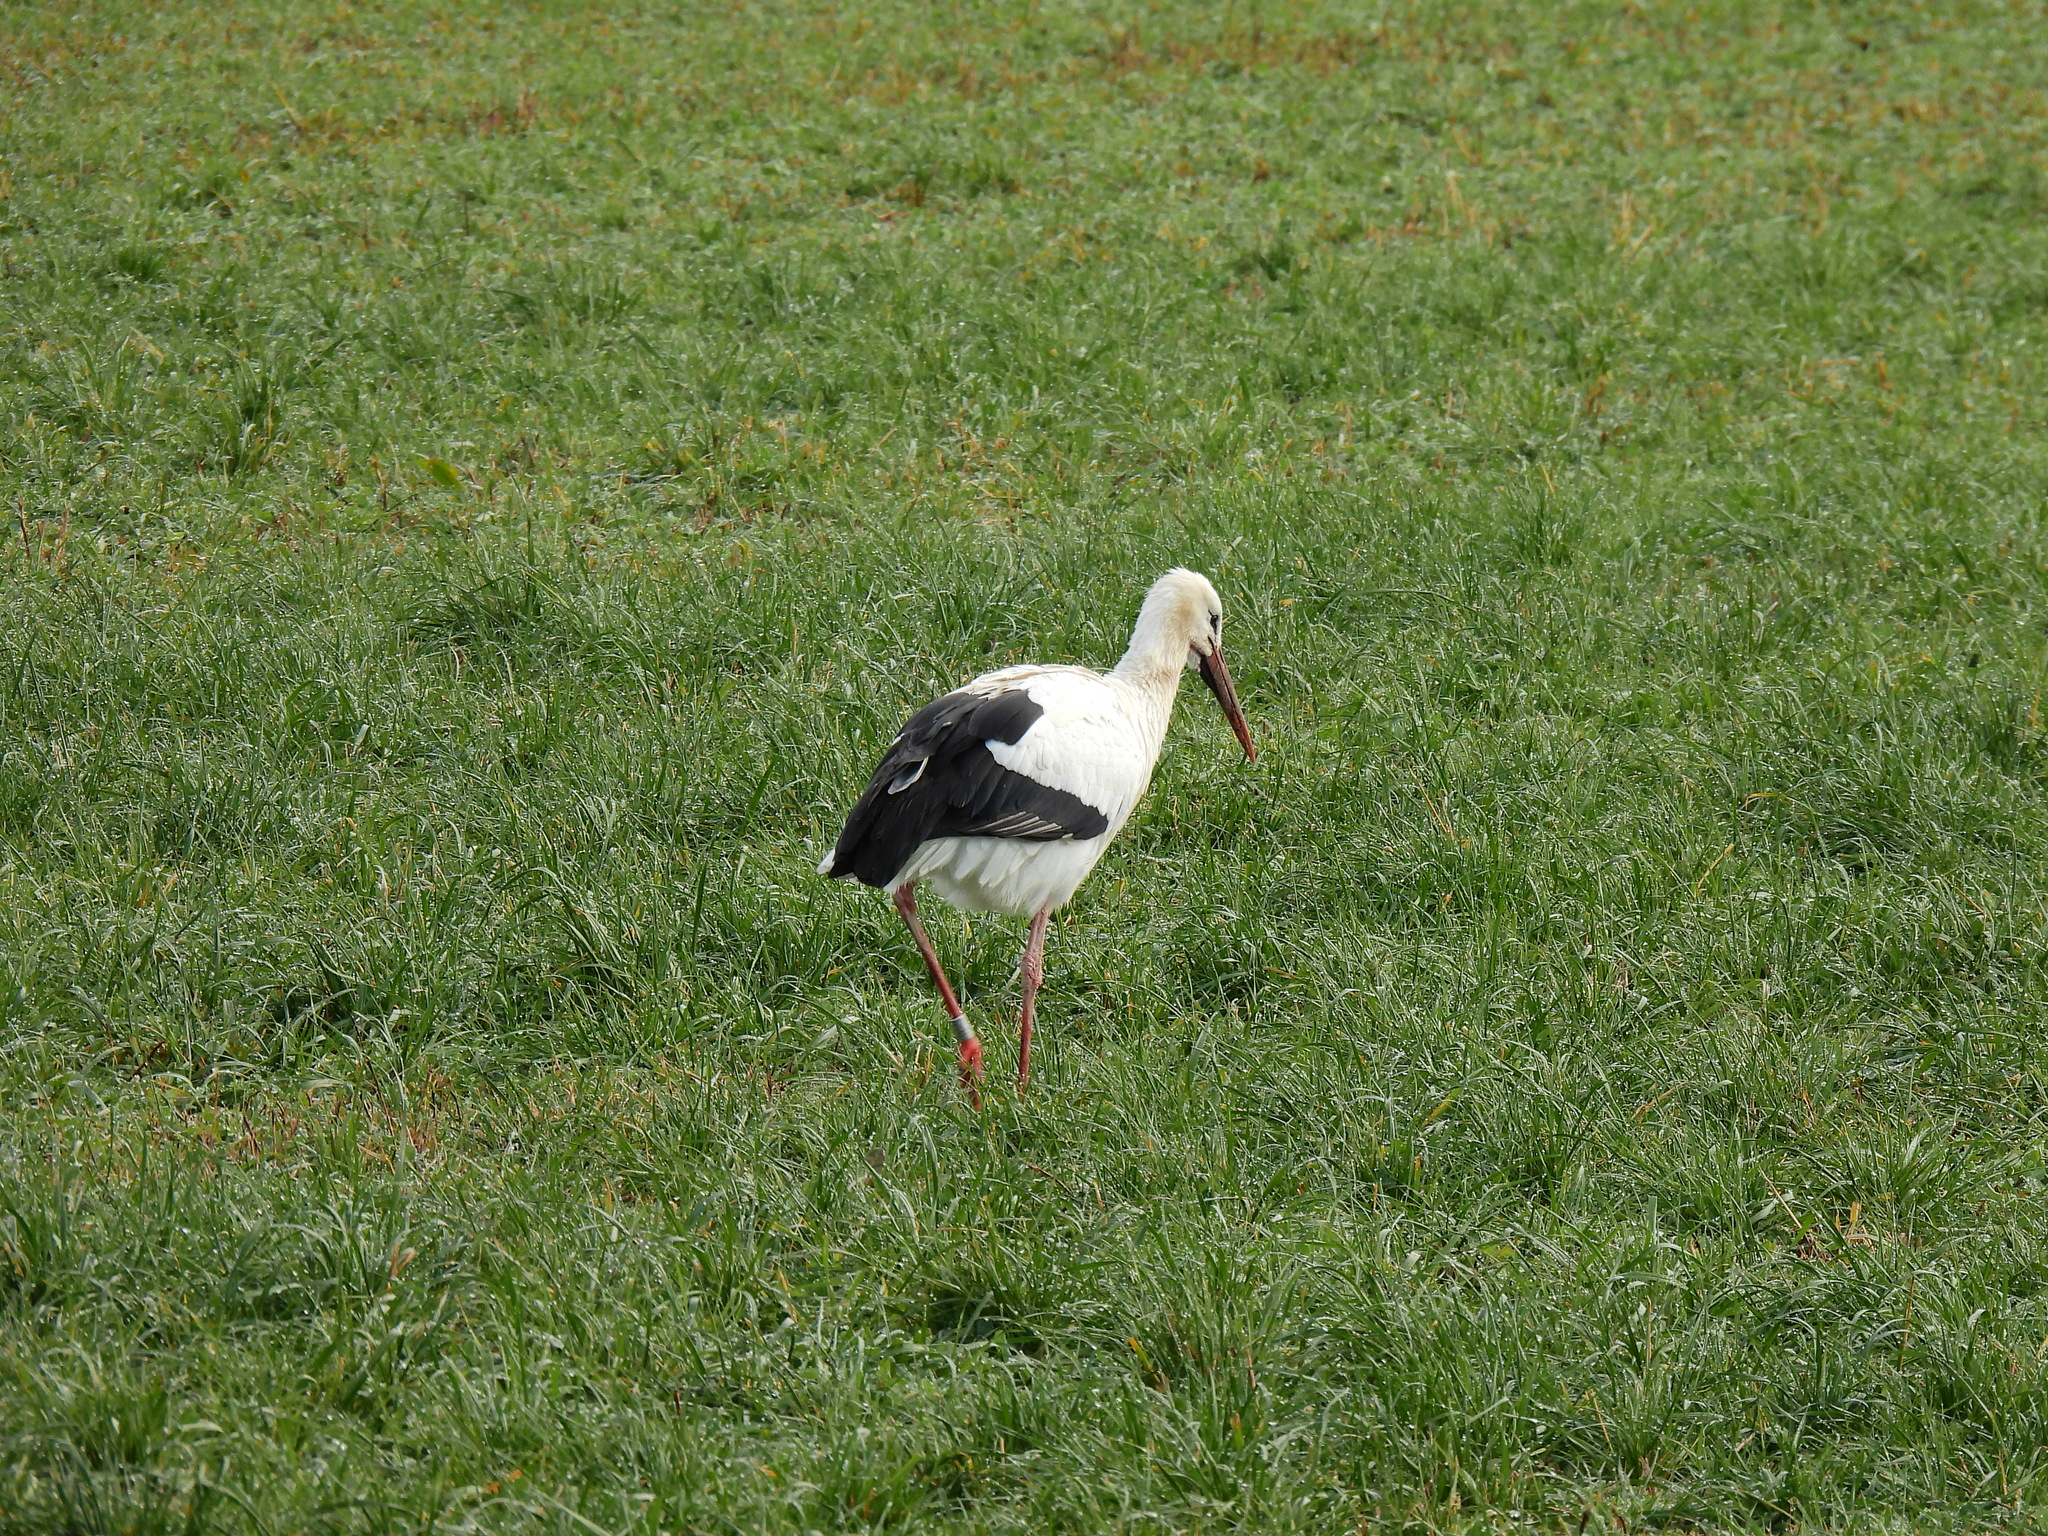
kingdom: Animalia
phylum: Chordata
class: Aves
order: Ciconiiformes
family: Ciconiidae
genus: Ciconia
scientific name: Ciconia ciconia
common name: White stork
